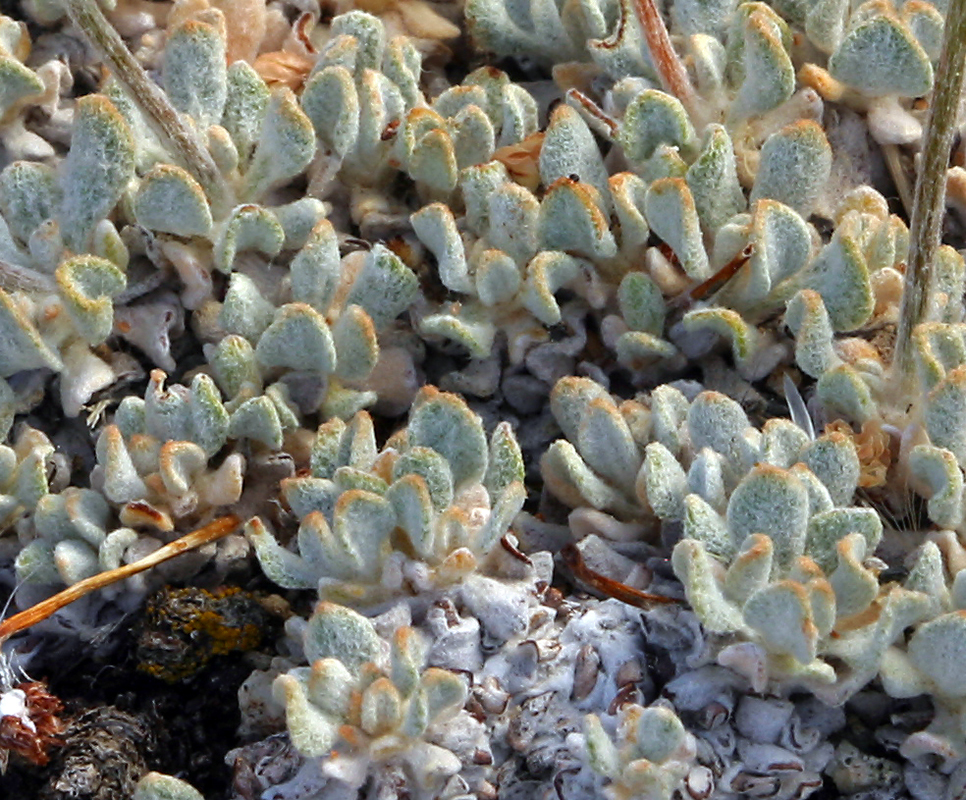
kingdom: Plantae
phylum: Tracheophyta
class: Magnoliopsida
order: Caryophyllales
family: Polygonaceae
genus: Eriogonum
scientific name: Eriogonum ovalifolium
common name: Cushion buckwheat
